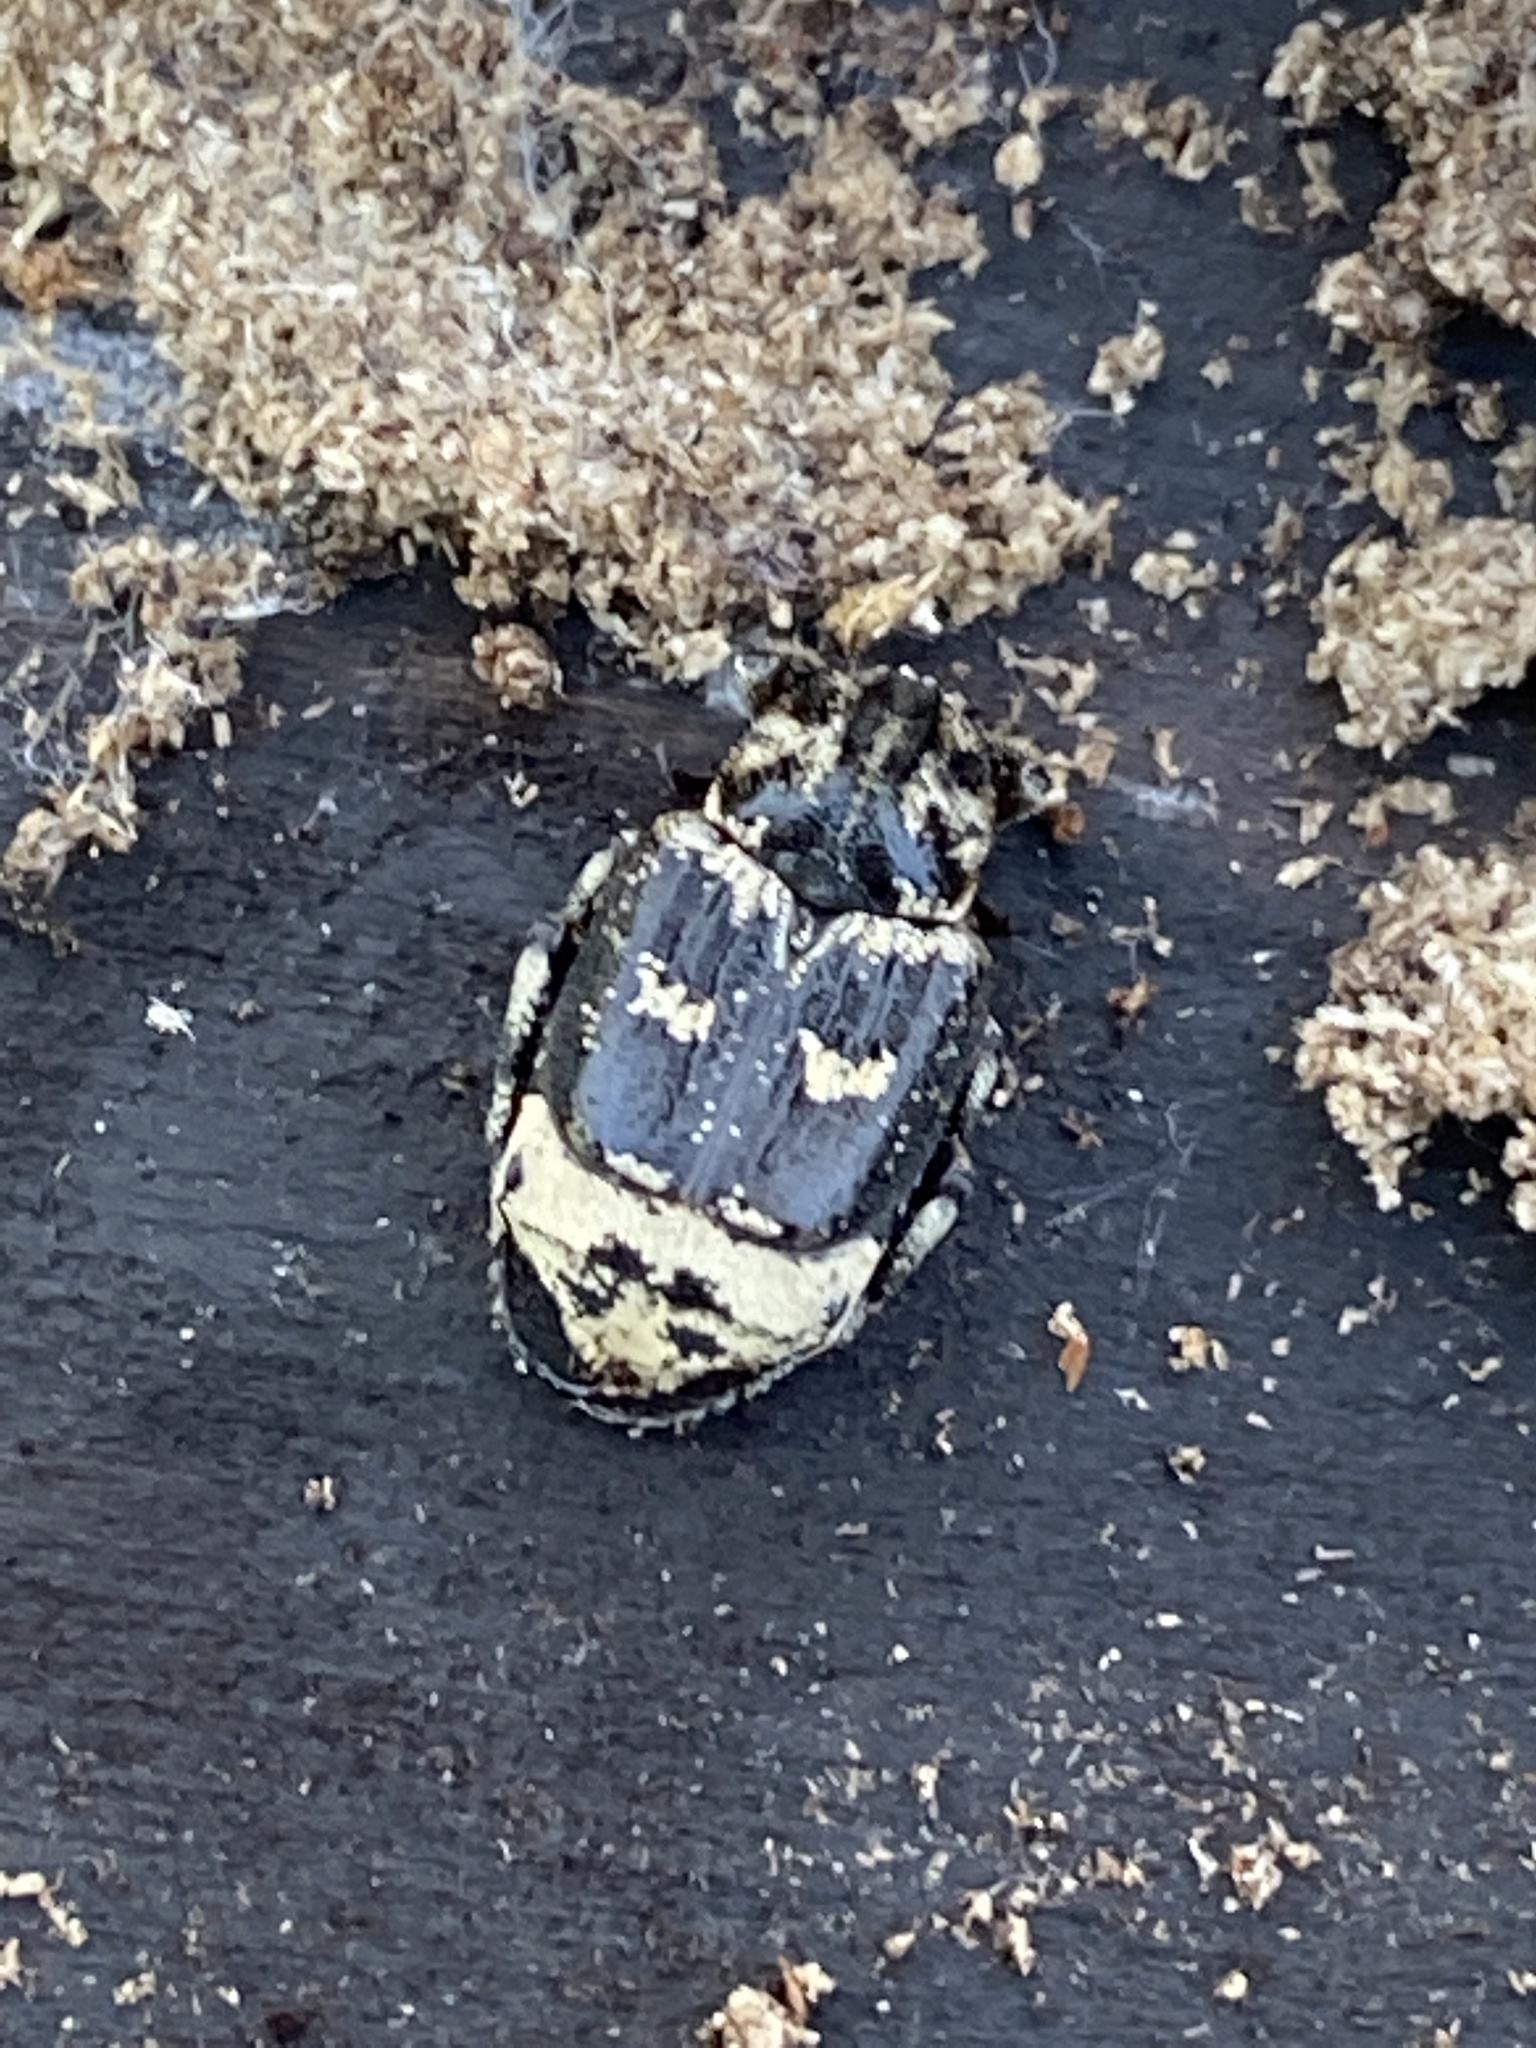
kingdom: Animalia
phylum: Arthropoda
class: Insecta
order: Coleoptera
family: Scarabaeidae
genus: Valgus
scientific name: Valgus hemipterus
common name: Bug flower chafer
